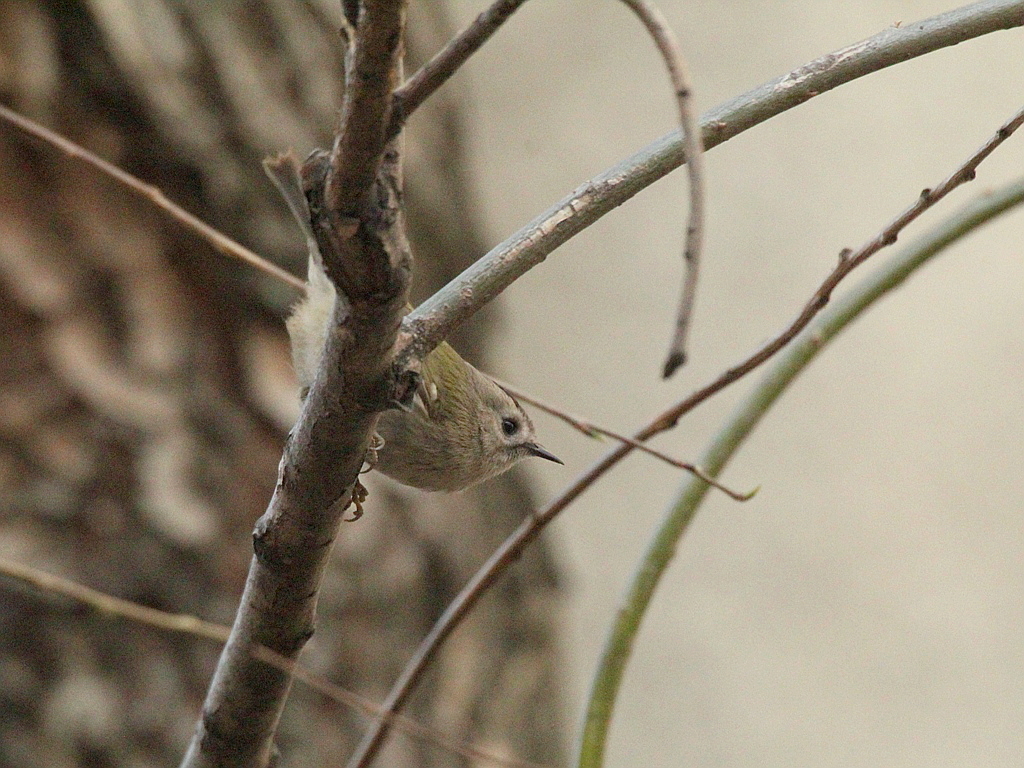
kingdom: Animalia
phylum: Chordata
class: Aves
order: Passeriformes
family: Regulidae
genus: Regulus
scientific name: Regulus regulus
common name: Goldcrest
